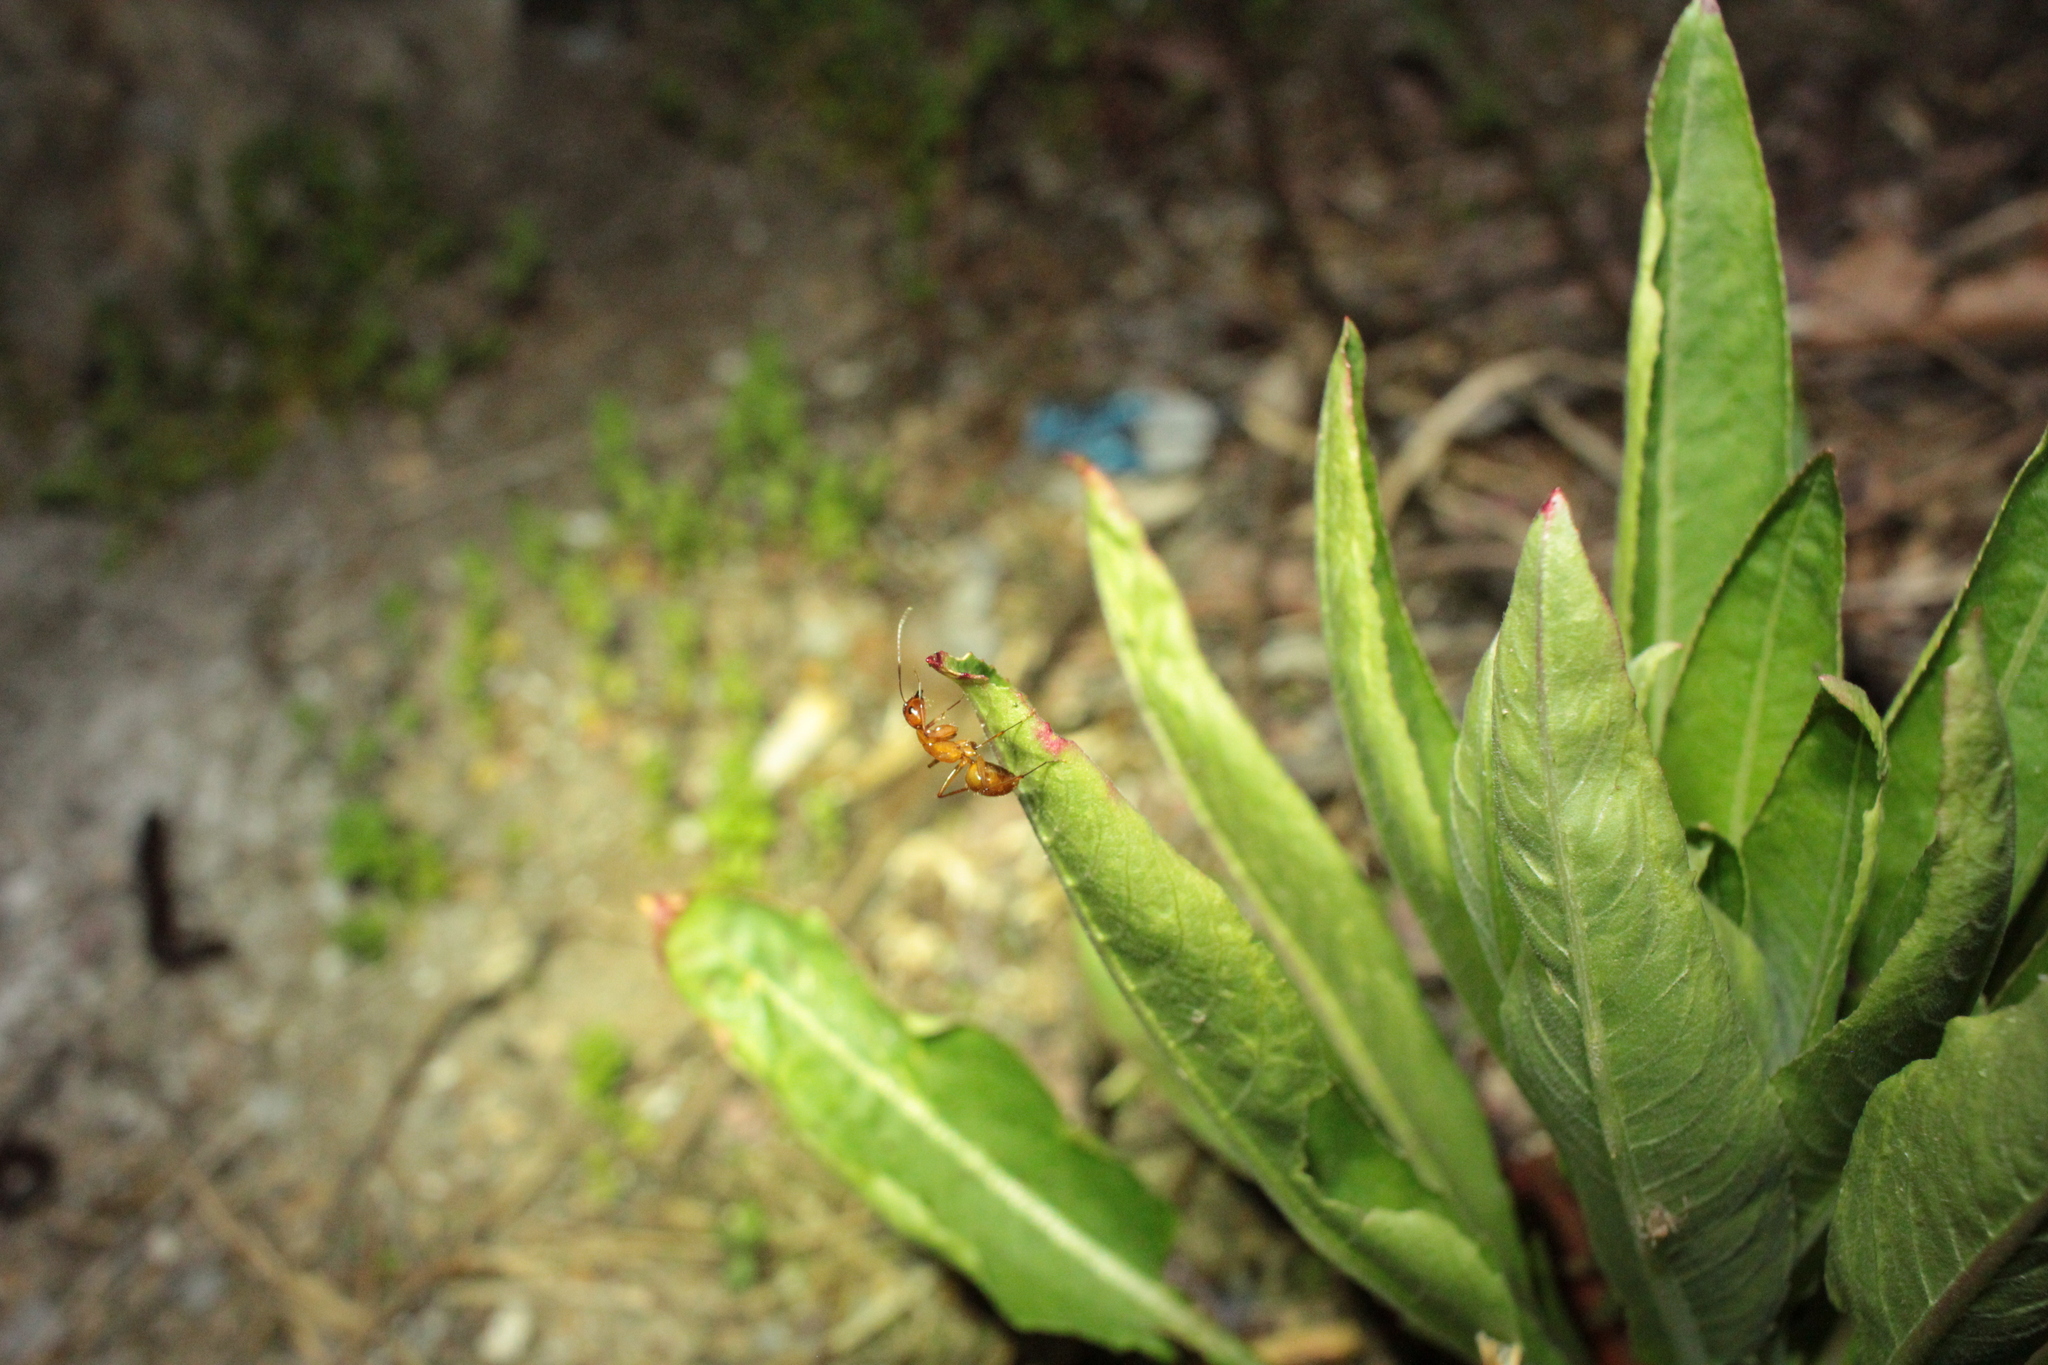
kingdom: Animalia
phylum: Arthropoda
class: Insecta
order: Hymenoptera
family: Formicidae
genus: Camponotus
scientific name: Camponotus castaneus
